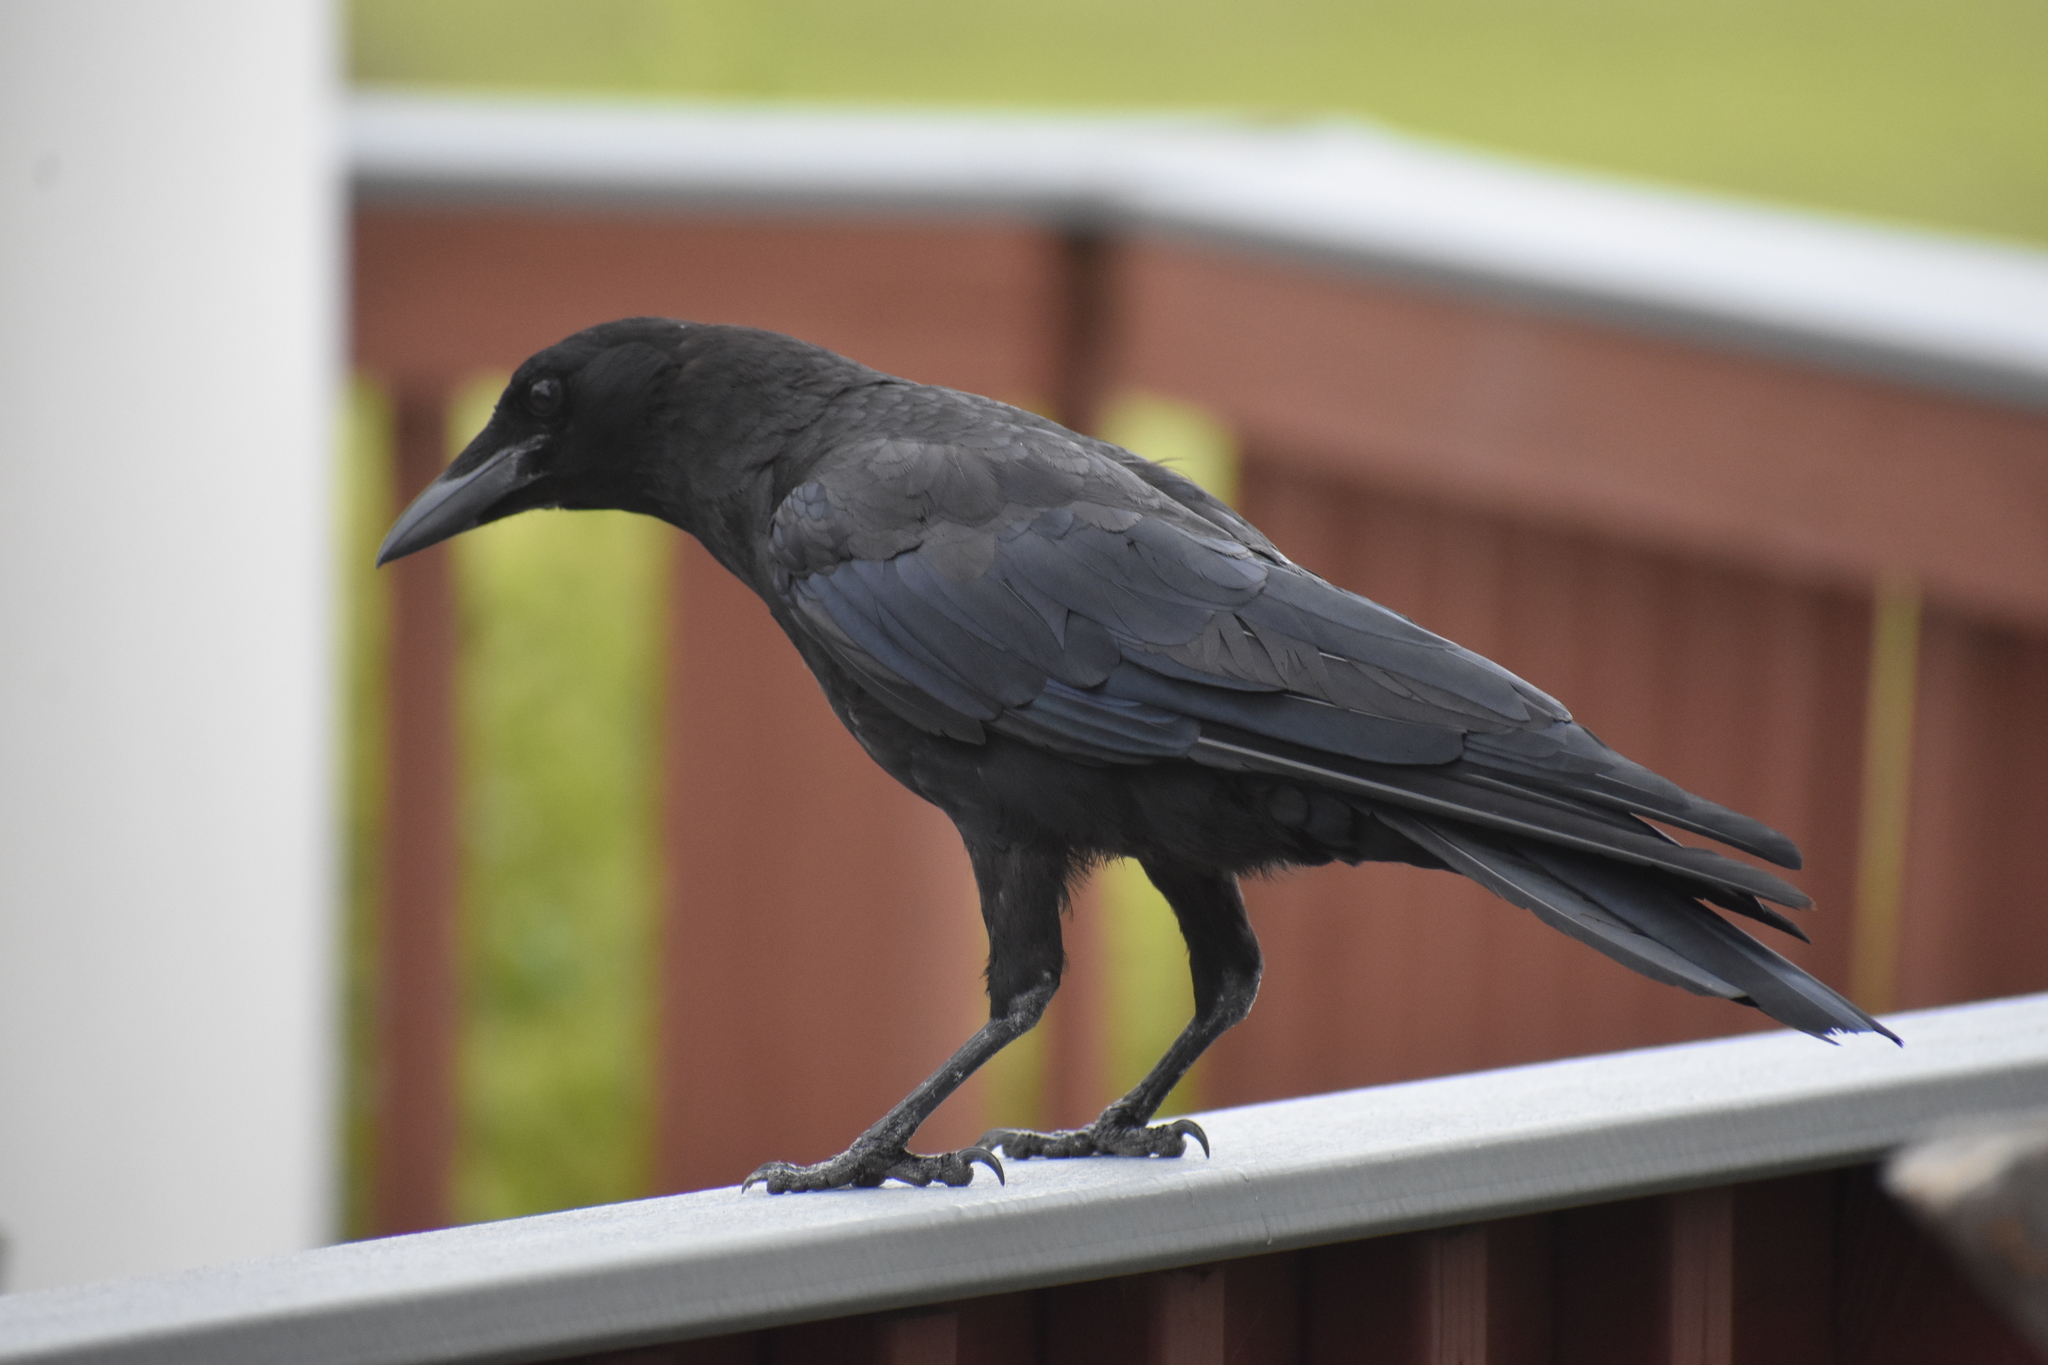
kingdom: Animalia
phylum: Chordata
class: Aves
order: Passeriformes
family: Corvidae
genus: Corvus
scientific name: Corvus brachyrhynchos
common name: American crow
